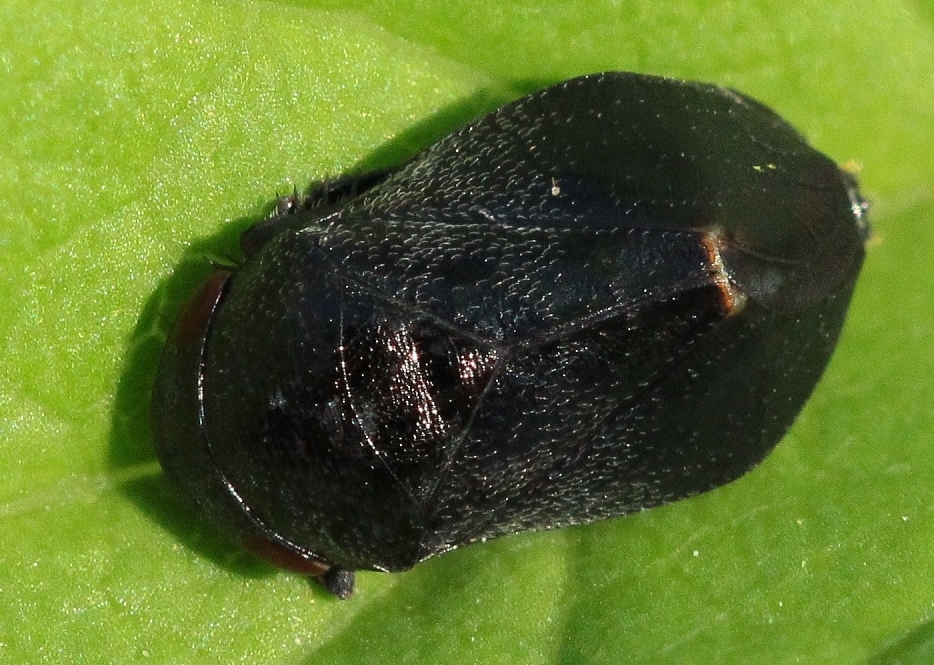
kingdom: Animalia
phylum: Arthropoda
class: Insecta
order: Hemiptera
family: Cicadellidae
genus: Penthimia
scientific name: Penthimia nigra
